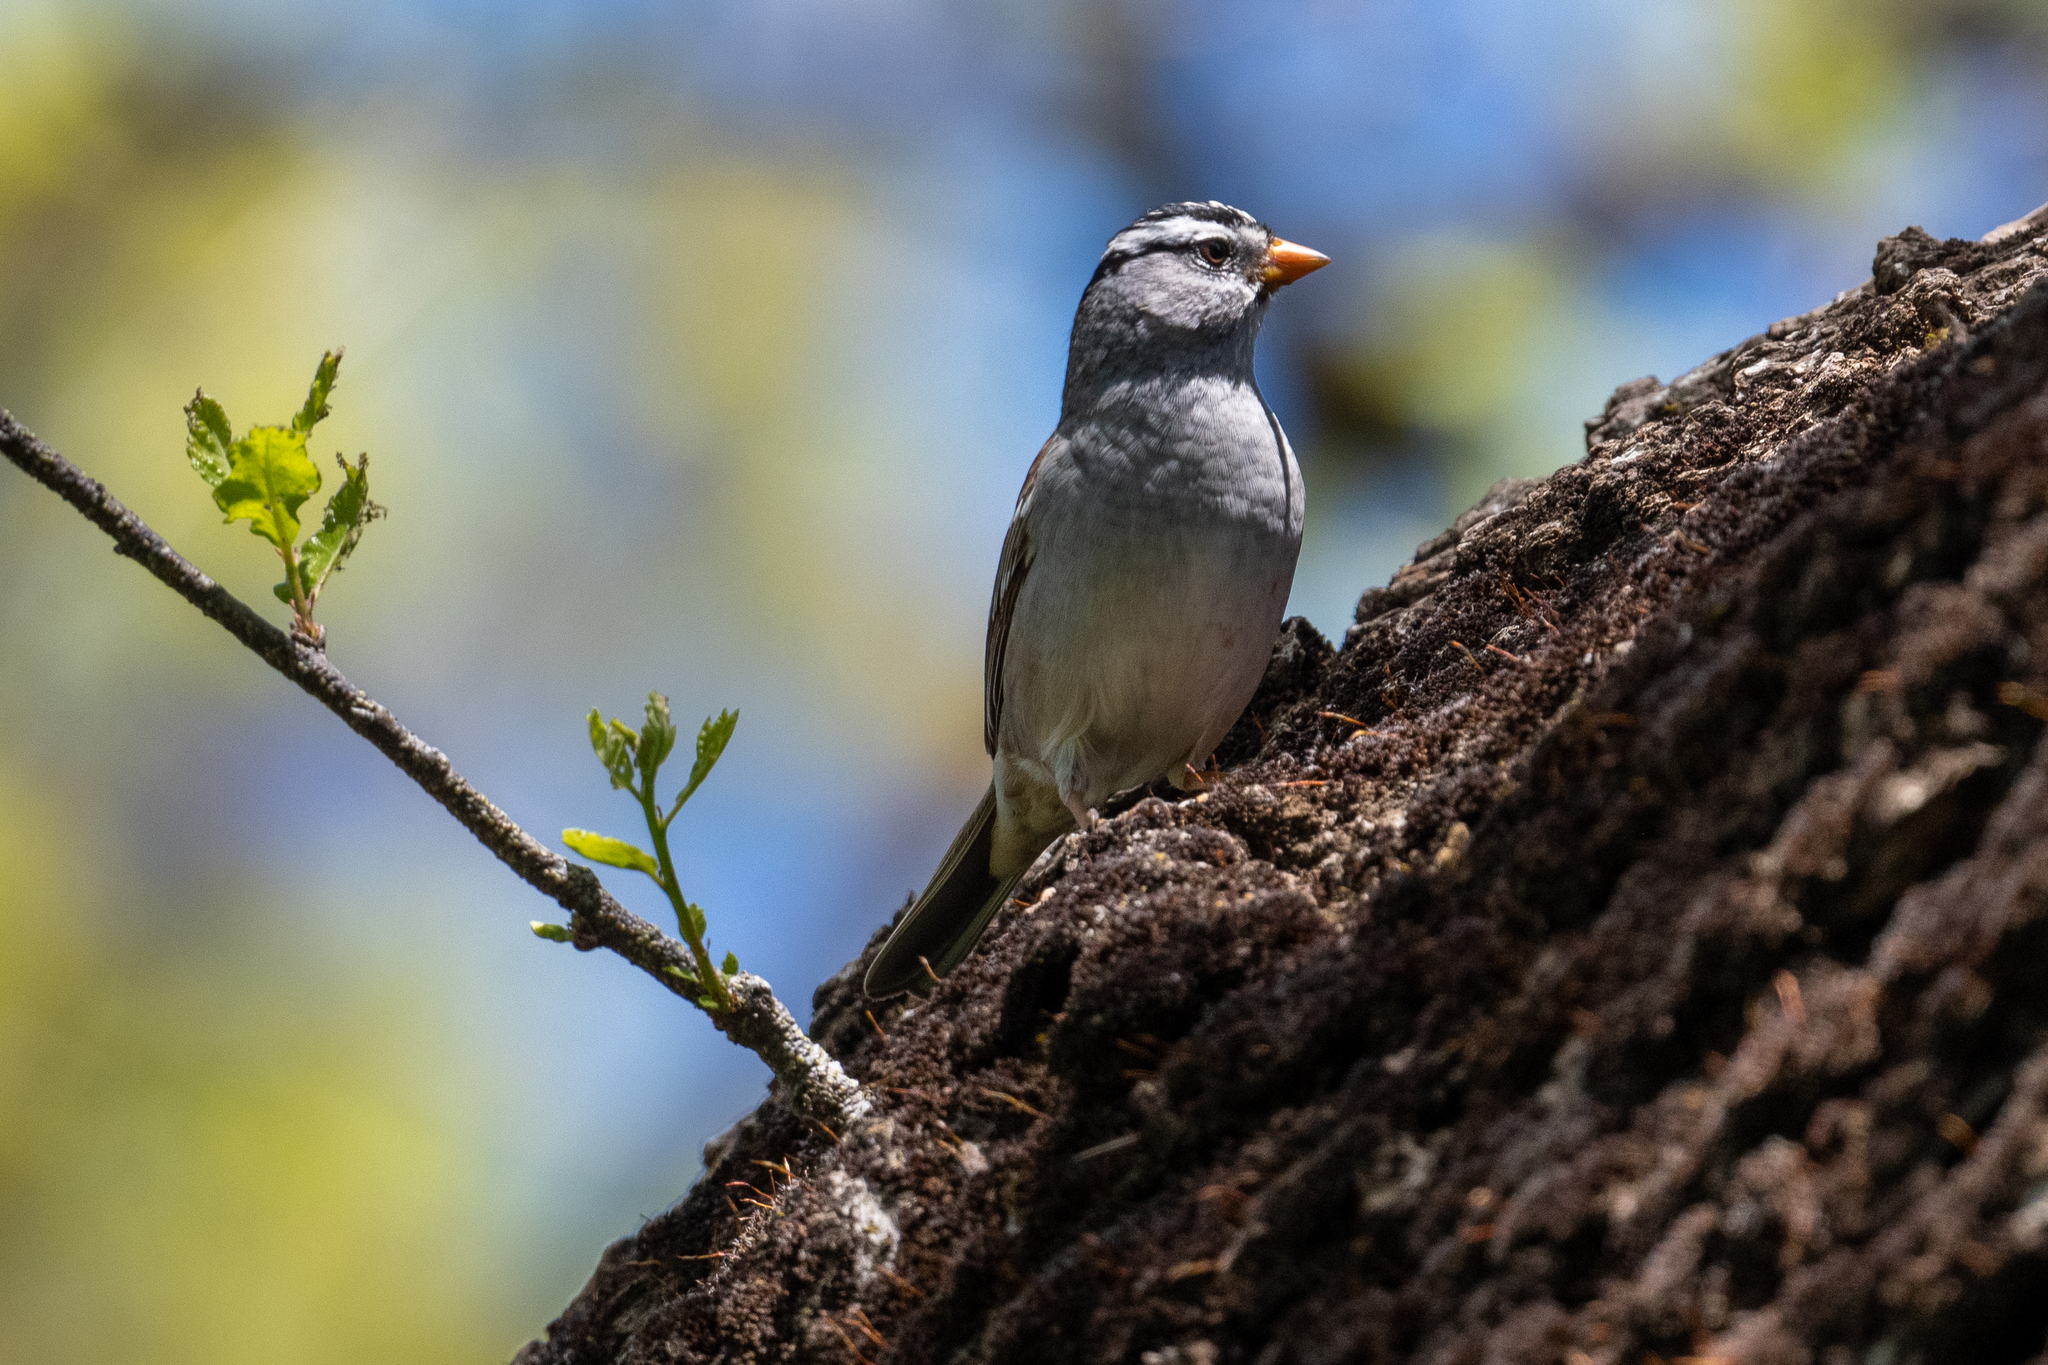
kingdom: Animalia
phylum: Chordata
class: Aves
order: Passeriformes
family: Passerellidae
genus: Zonotrichia
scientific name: Zonotrichia leucophrys
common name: White-crowned sparrow
